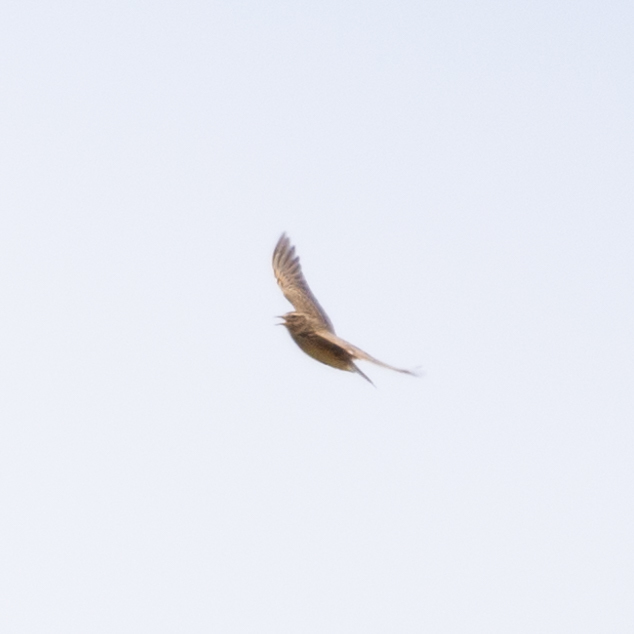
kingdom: Animalia
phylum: Chordata
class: Aves
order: Passeriformes
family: Alaudidae
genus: Alauda
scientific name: Alauda arvensis
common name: Eurasian skylark
